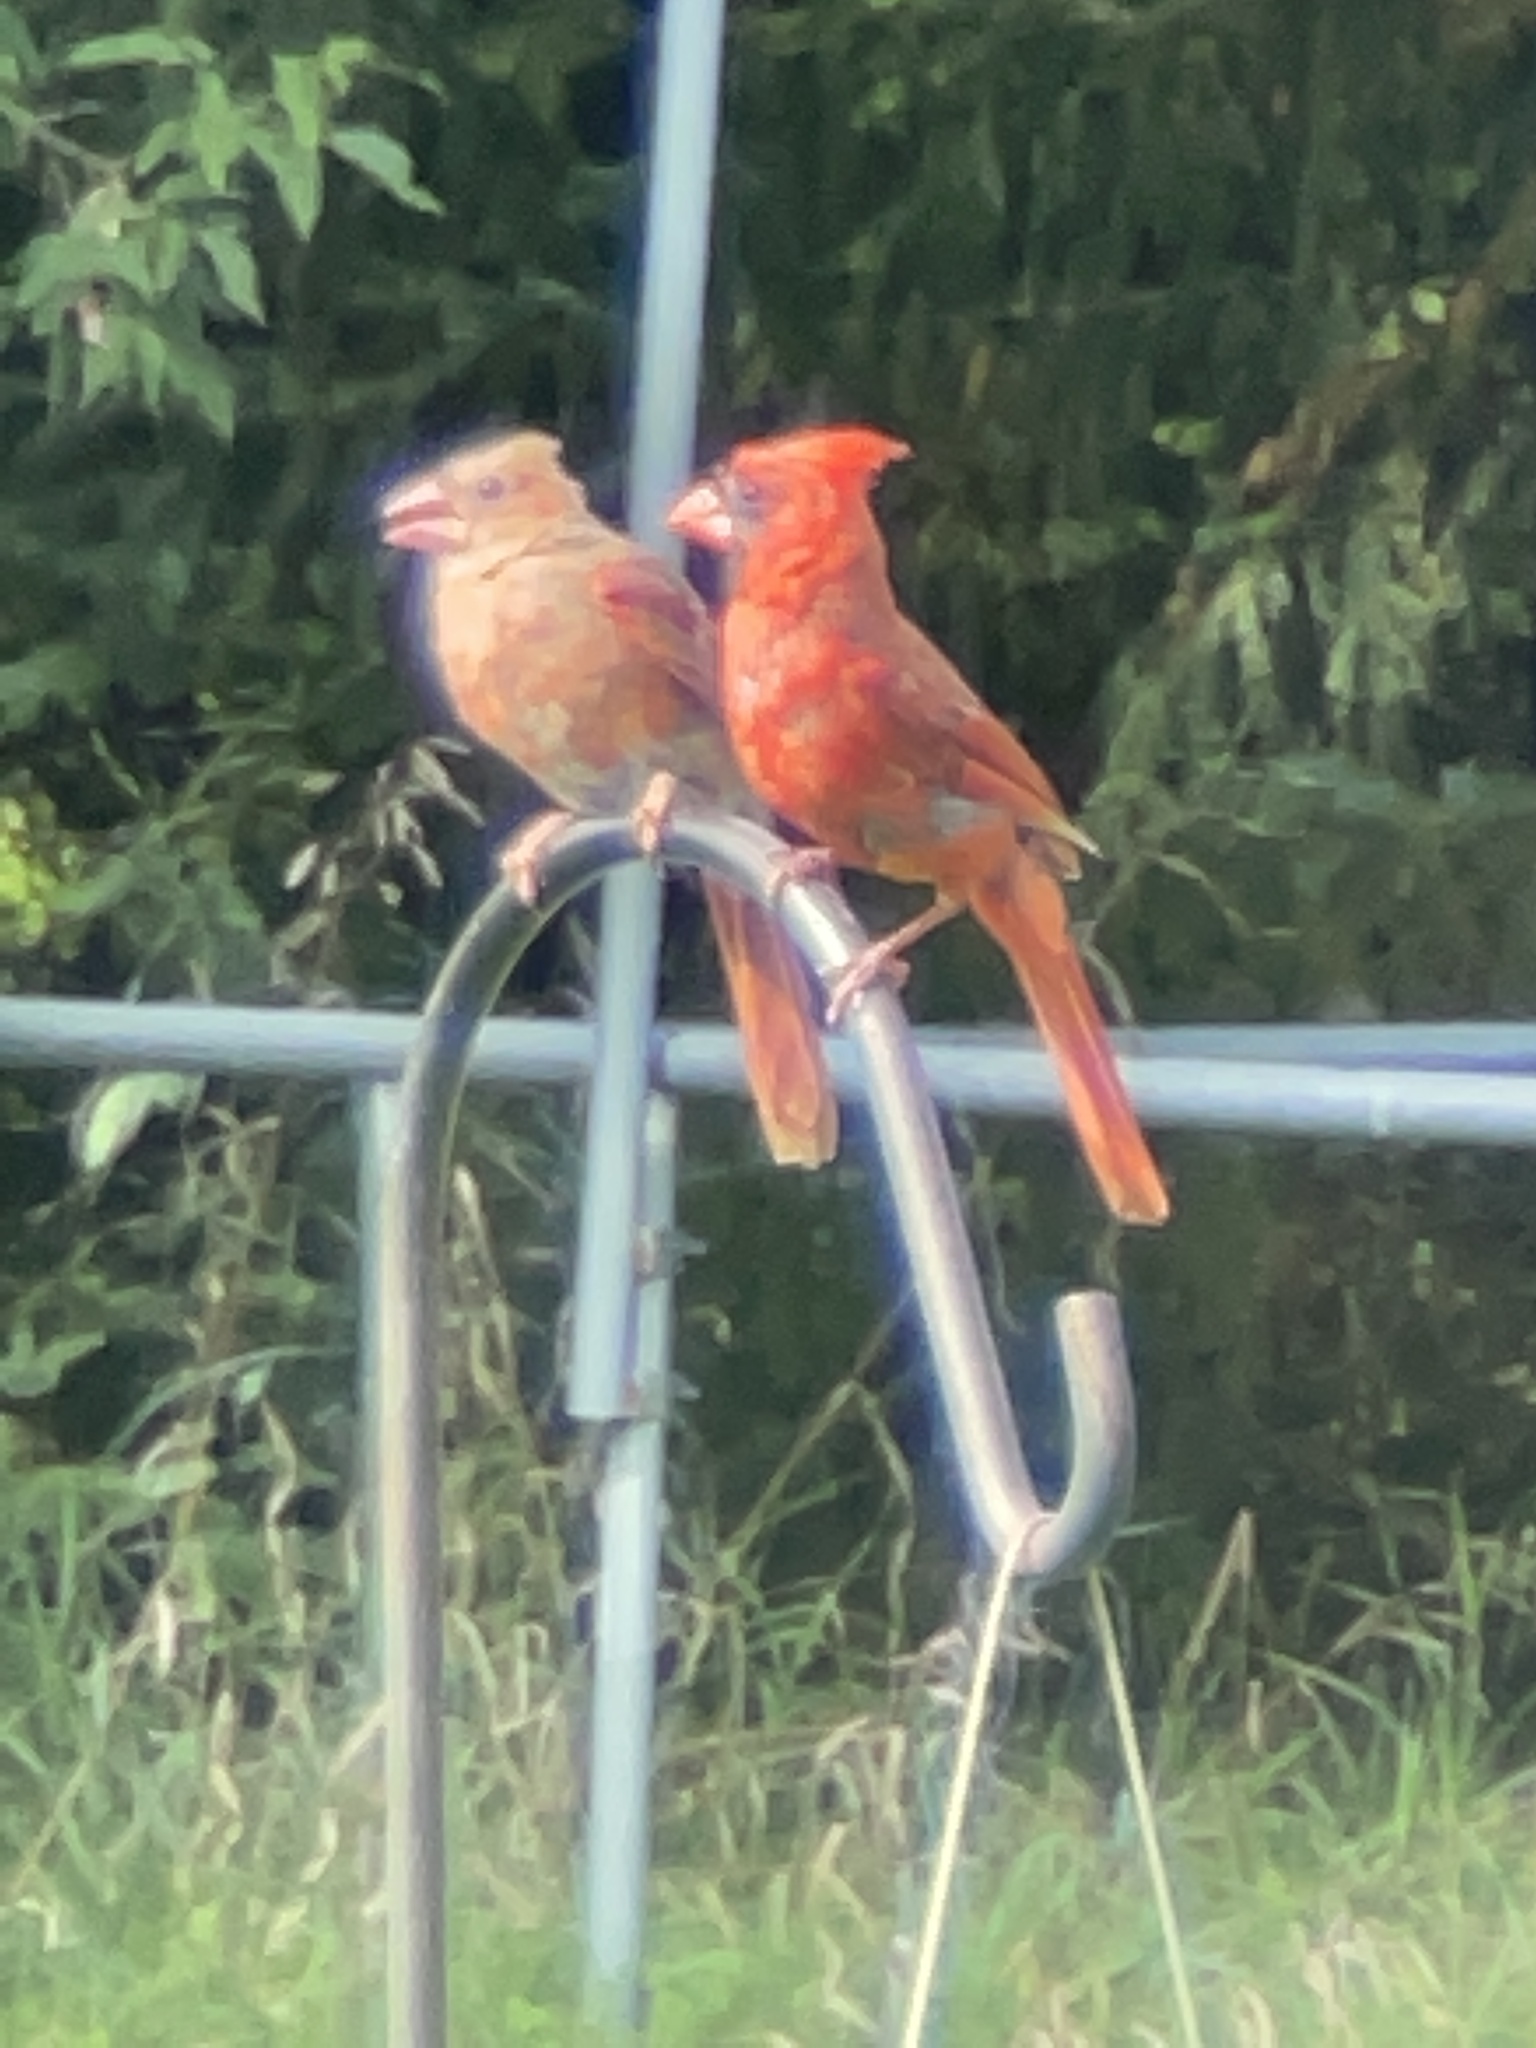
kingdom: Animalia
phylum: Chordata
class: Aves
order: Passeriformes
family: Cardinalidae
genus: Cardinalis
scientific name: Cardinalis cardinalis
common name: Northern cardinal
